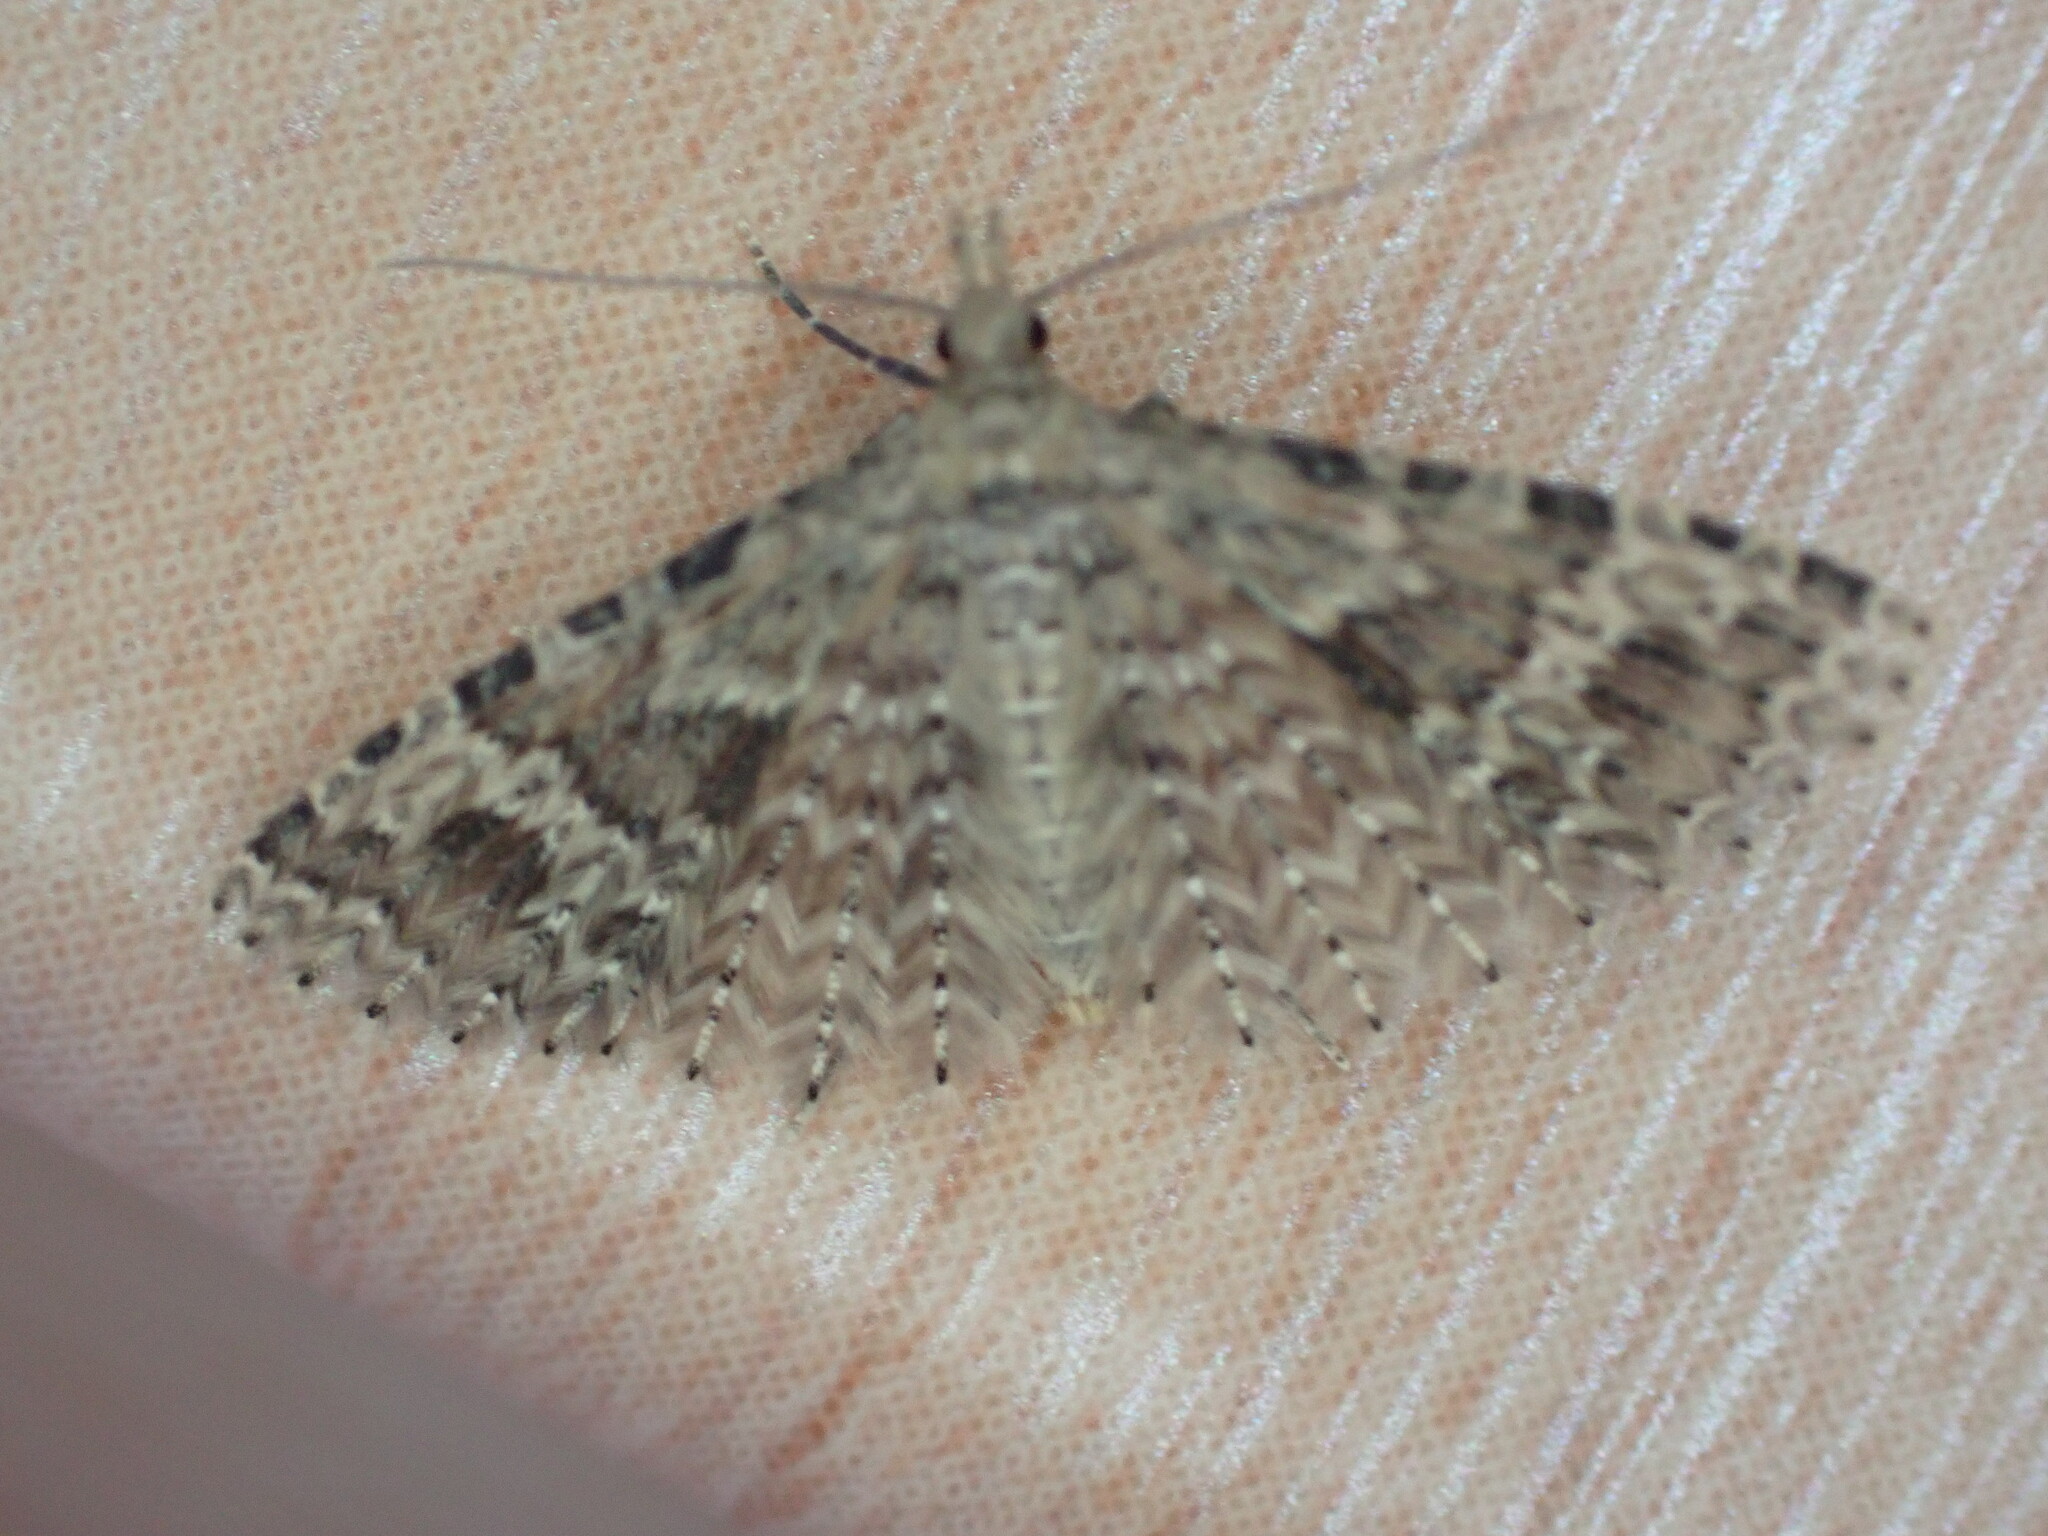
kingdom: Animalia
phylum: Arthropoda
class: Insecta
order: Lepidoptera
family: Alucitidae
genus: Alucita
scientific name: Alucita hexadactyla
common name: Twenty-plume moth
